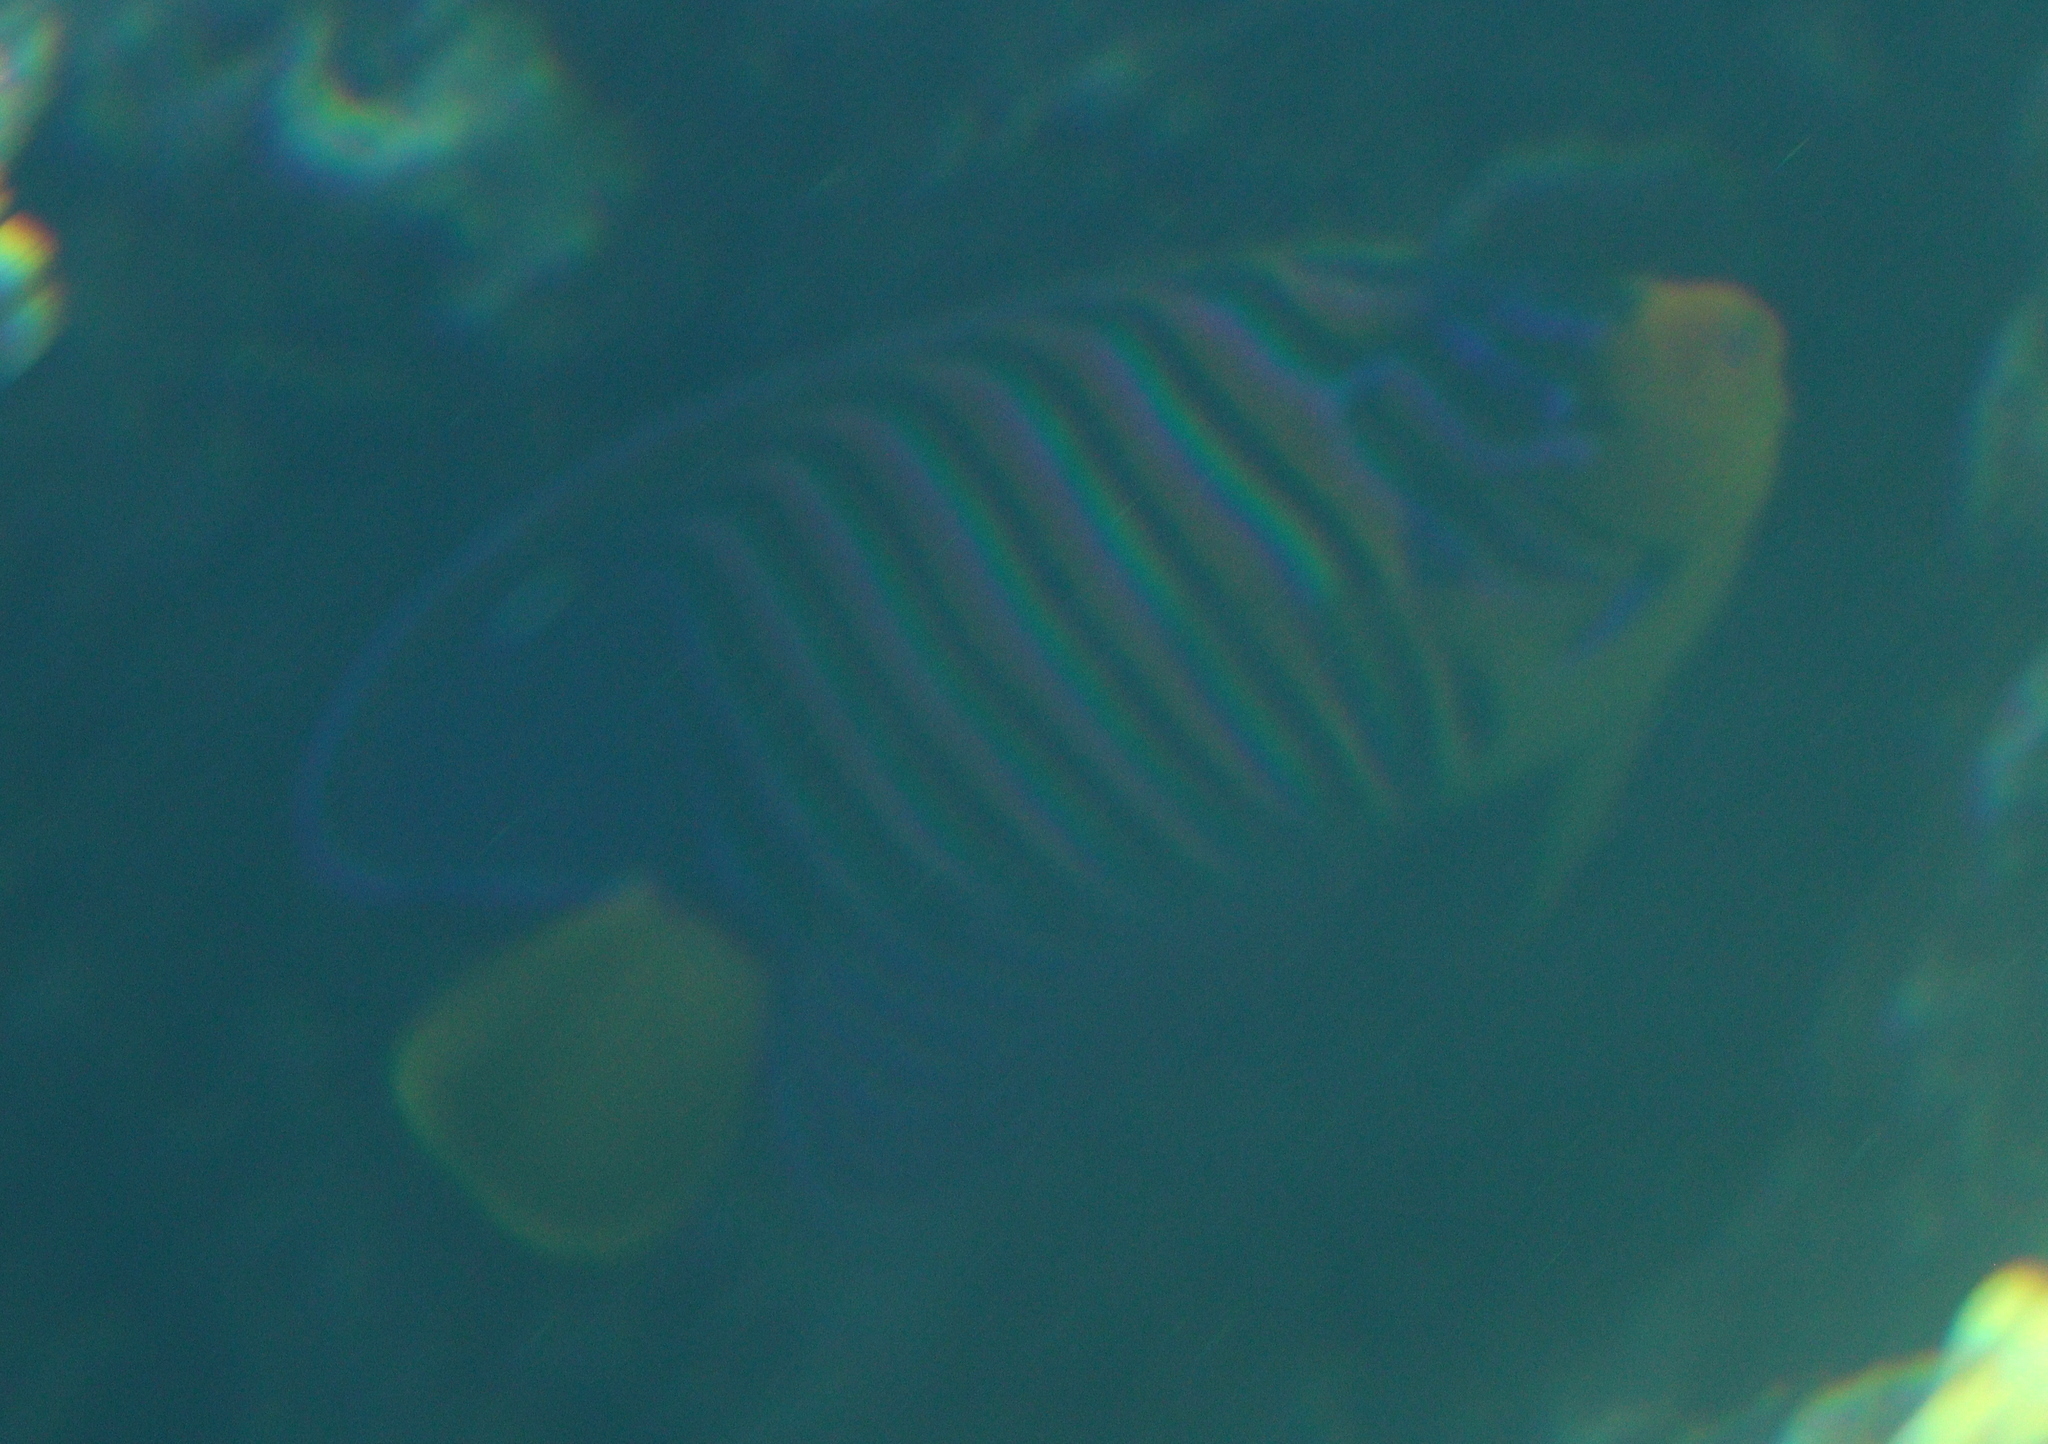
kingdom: Animalia
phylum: Chordata
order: Perciformes
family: Pomacanthidae
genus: Pygoplites
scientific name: Pygoplites diacanthus
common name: Regal angelfish
